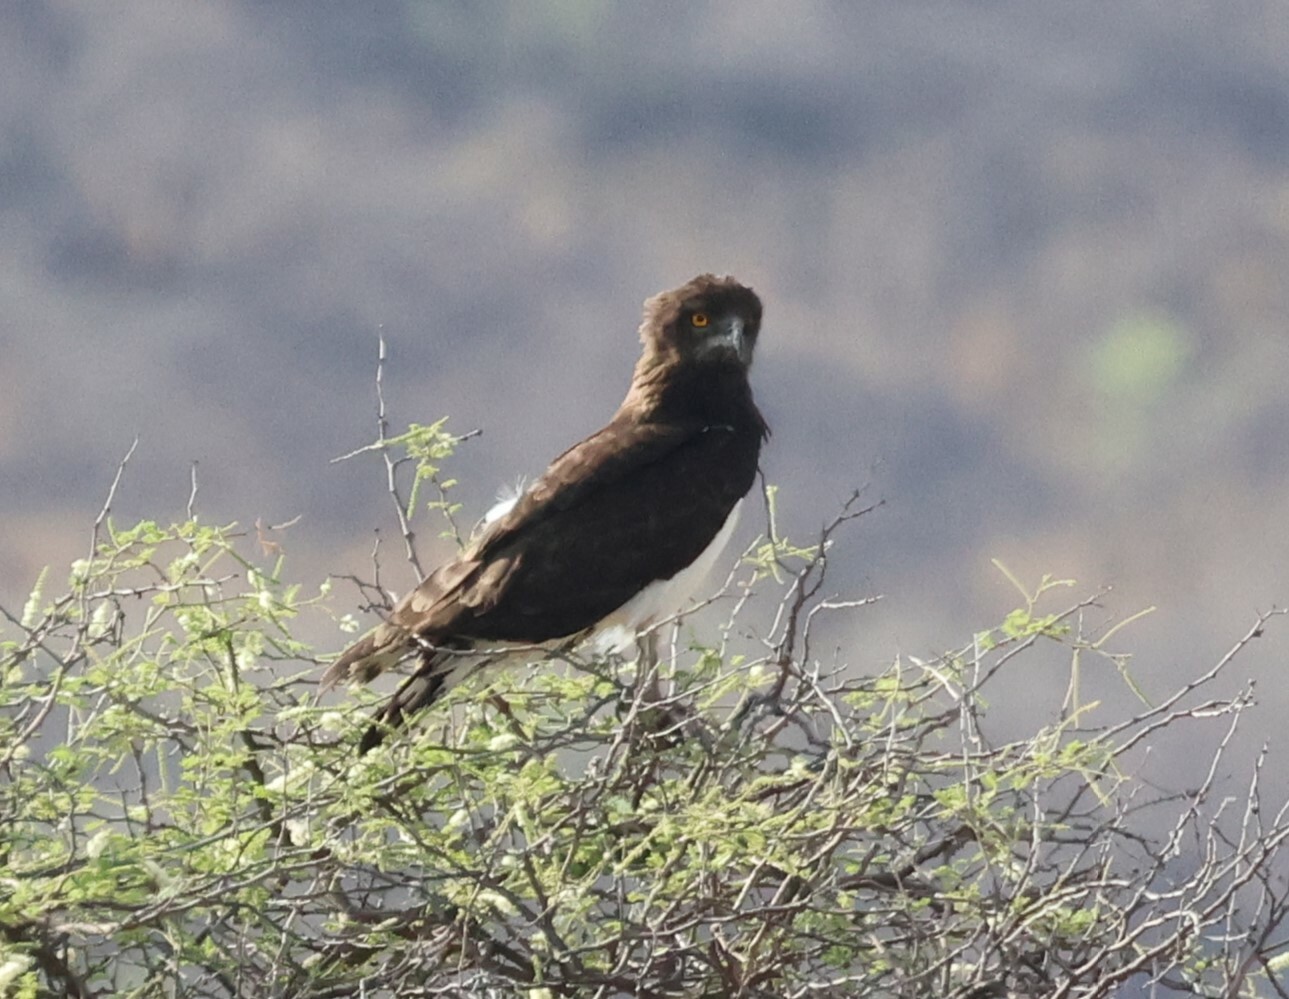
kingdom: Animalia
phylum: Chordata
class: Aves
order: Accipitriformes
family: Accipitridae
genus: Circaetus
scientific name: Circaetus pectoralis
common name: Black-chested snake eagle
